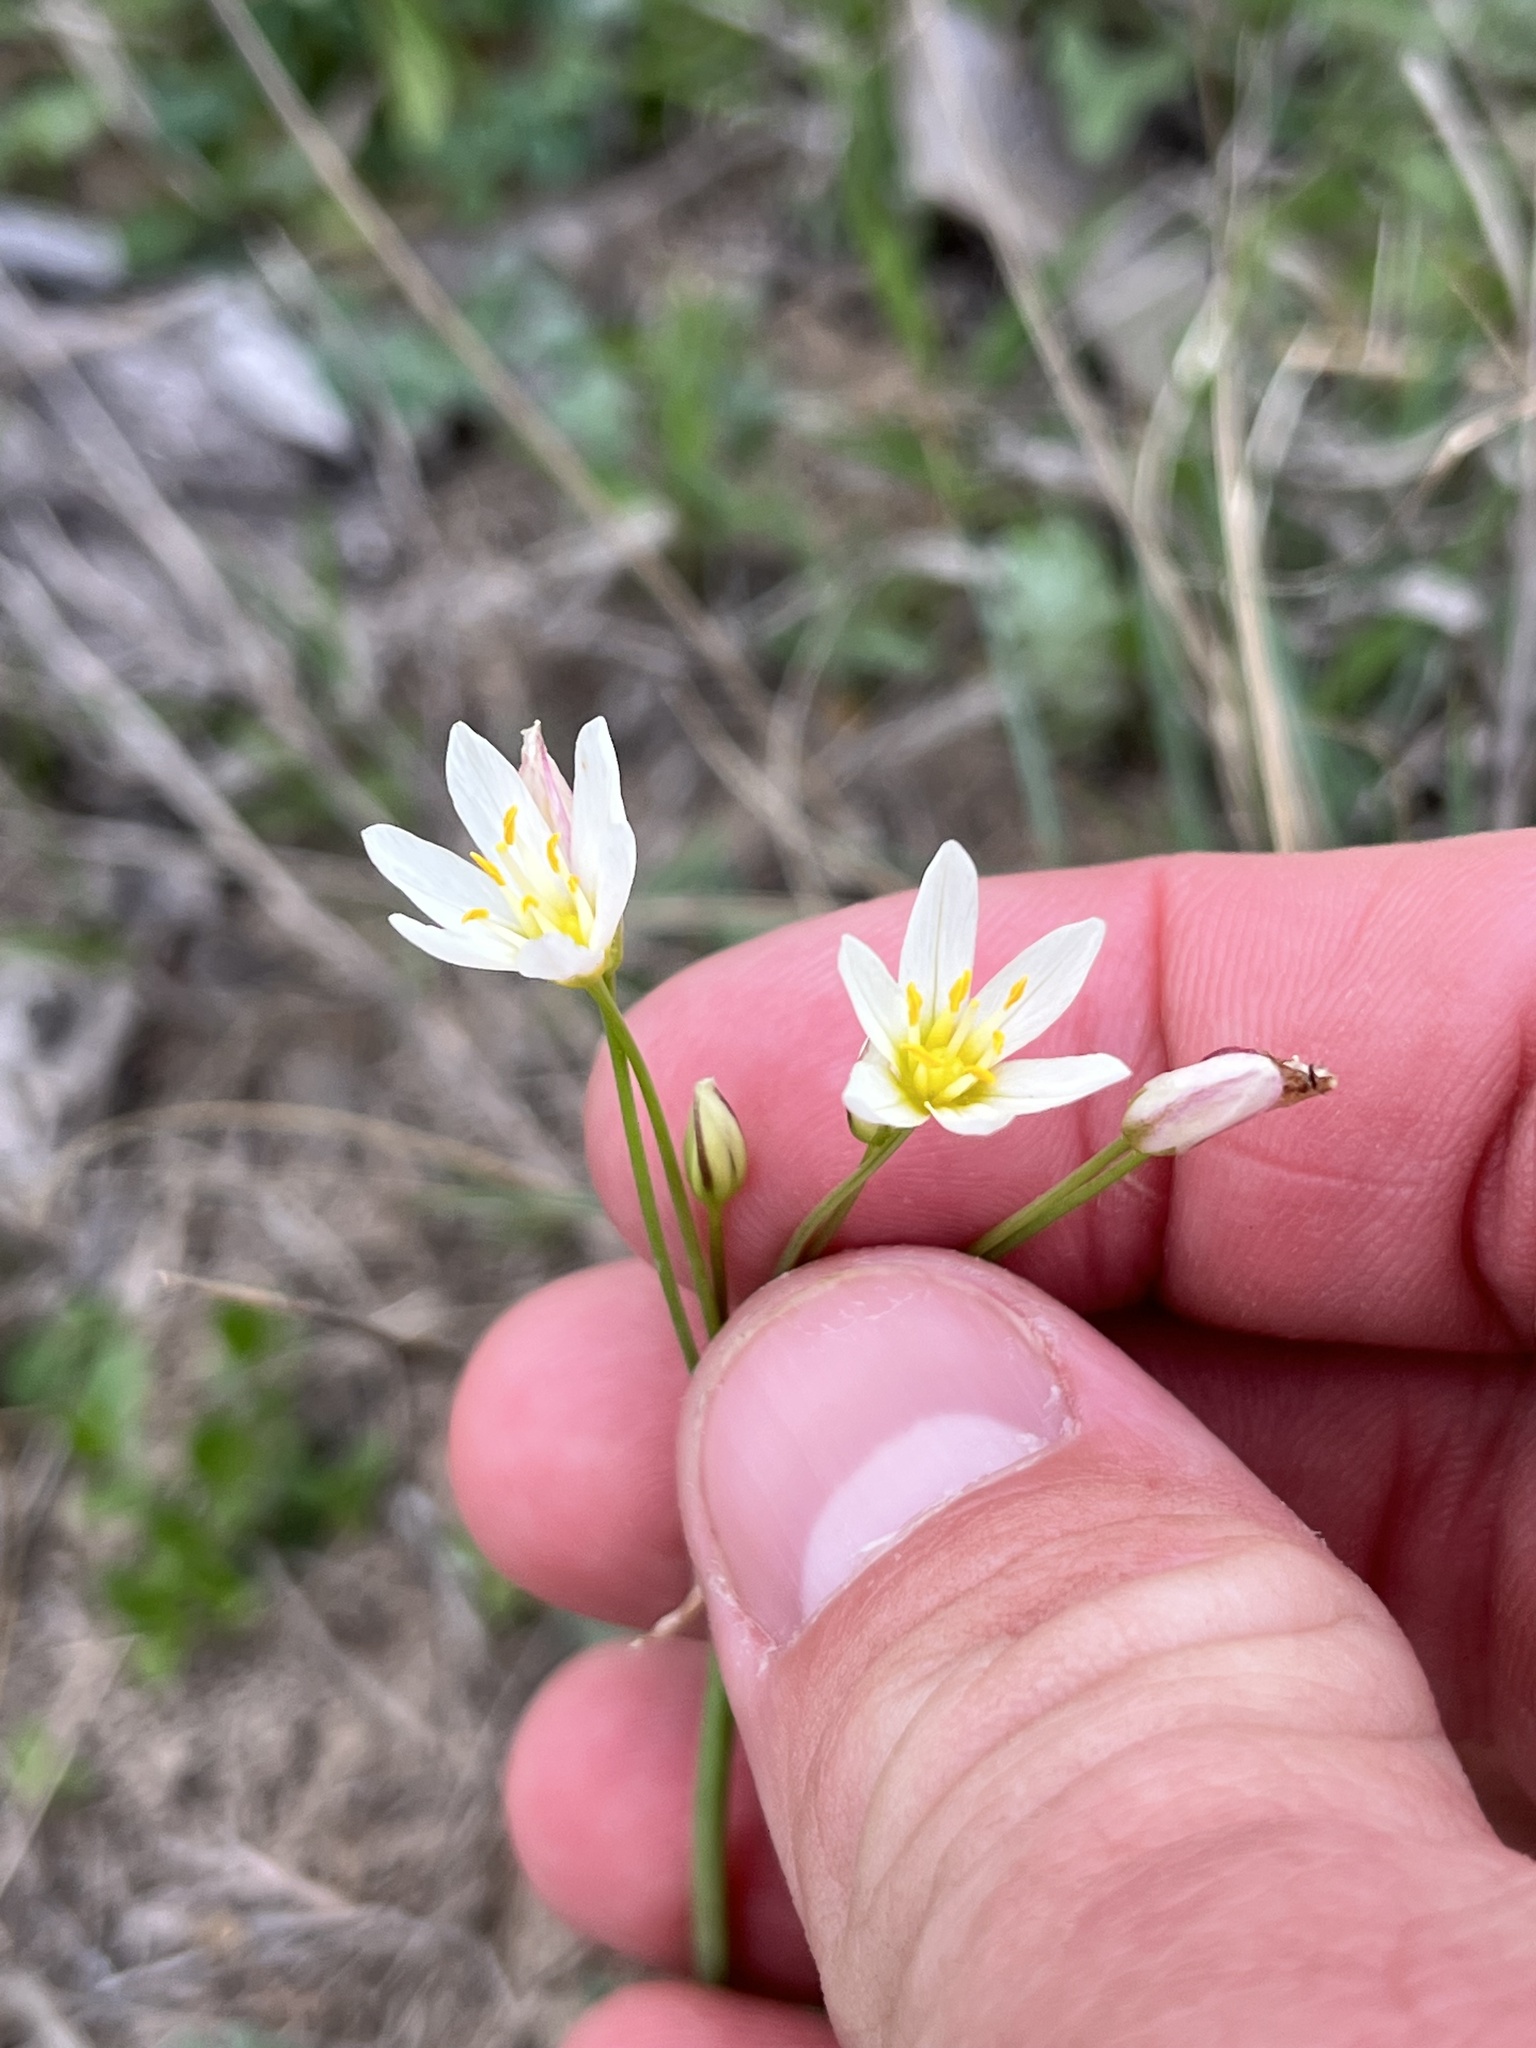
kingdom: Plantae
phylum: Tracheophyta
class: Liliopsida
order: Asparagales
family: Amaryllidaceae
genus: Nothoscordum
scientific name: Nothoscordum bivalve
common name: Crow-poison
